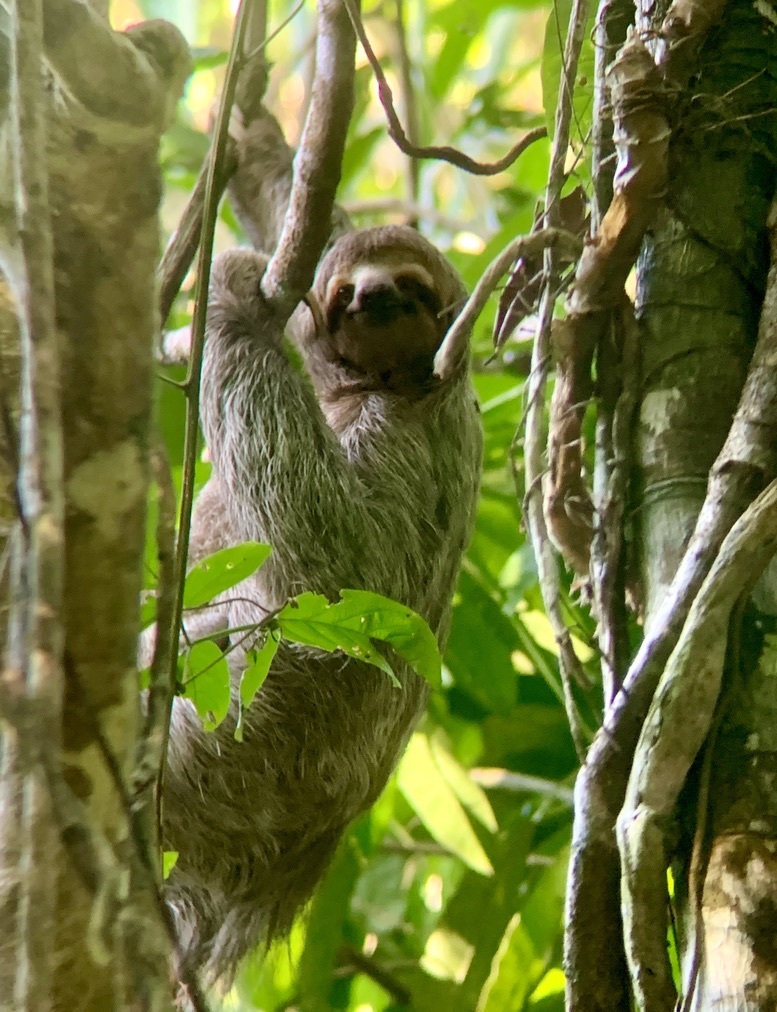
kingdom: Animalia
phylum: Chordata
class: Mammalia
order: Pilosa
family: Bradypodidae
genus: Bradypus
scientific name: Bradypus variegatus
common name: Brown-throated three-toed sloth
